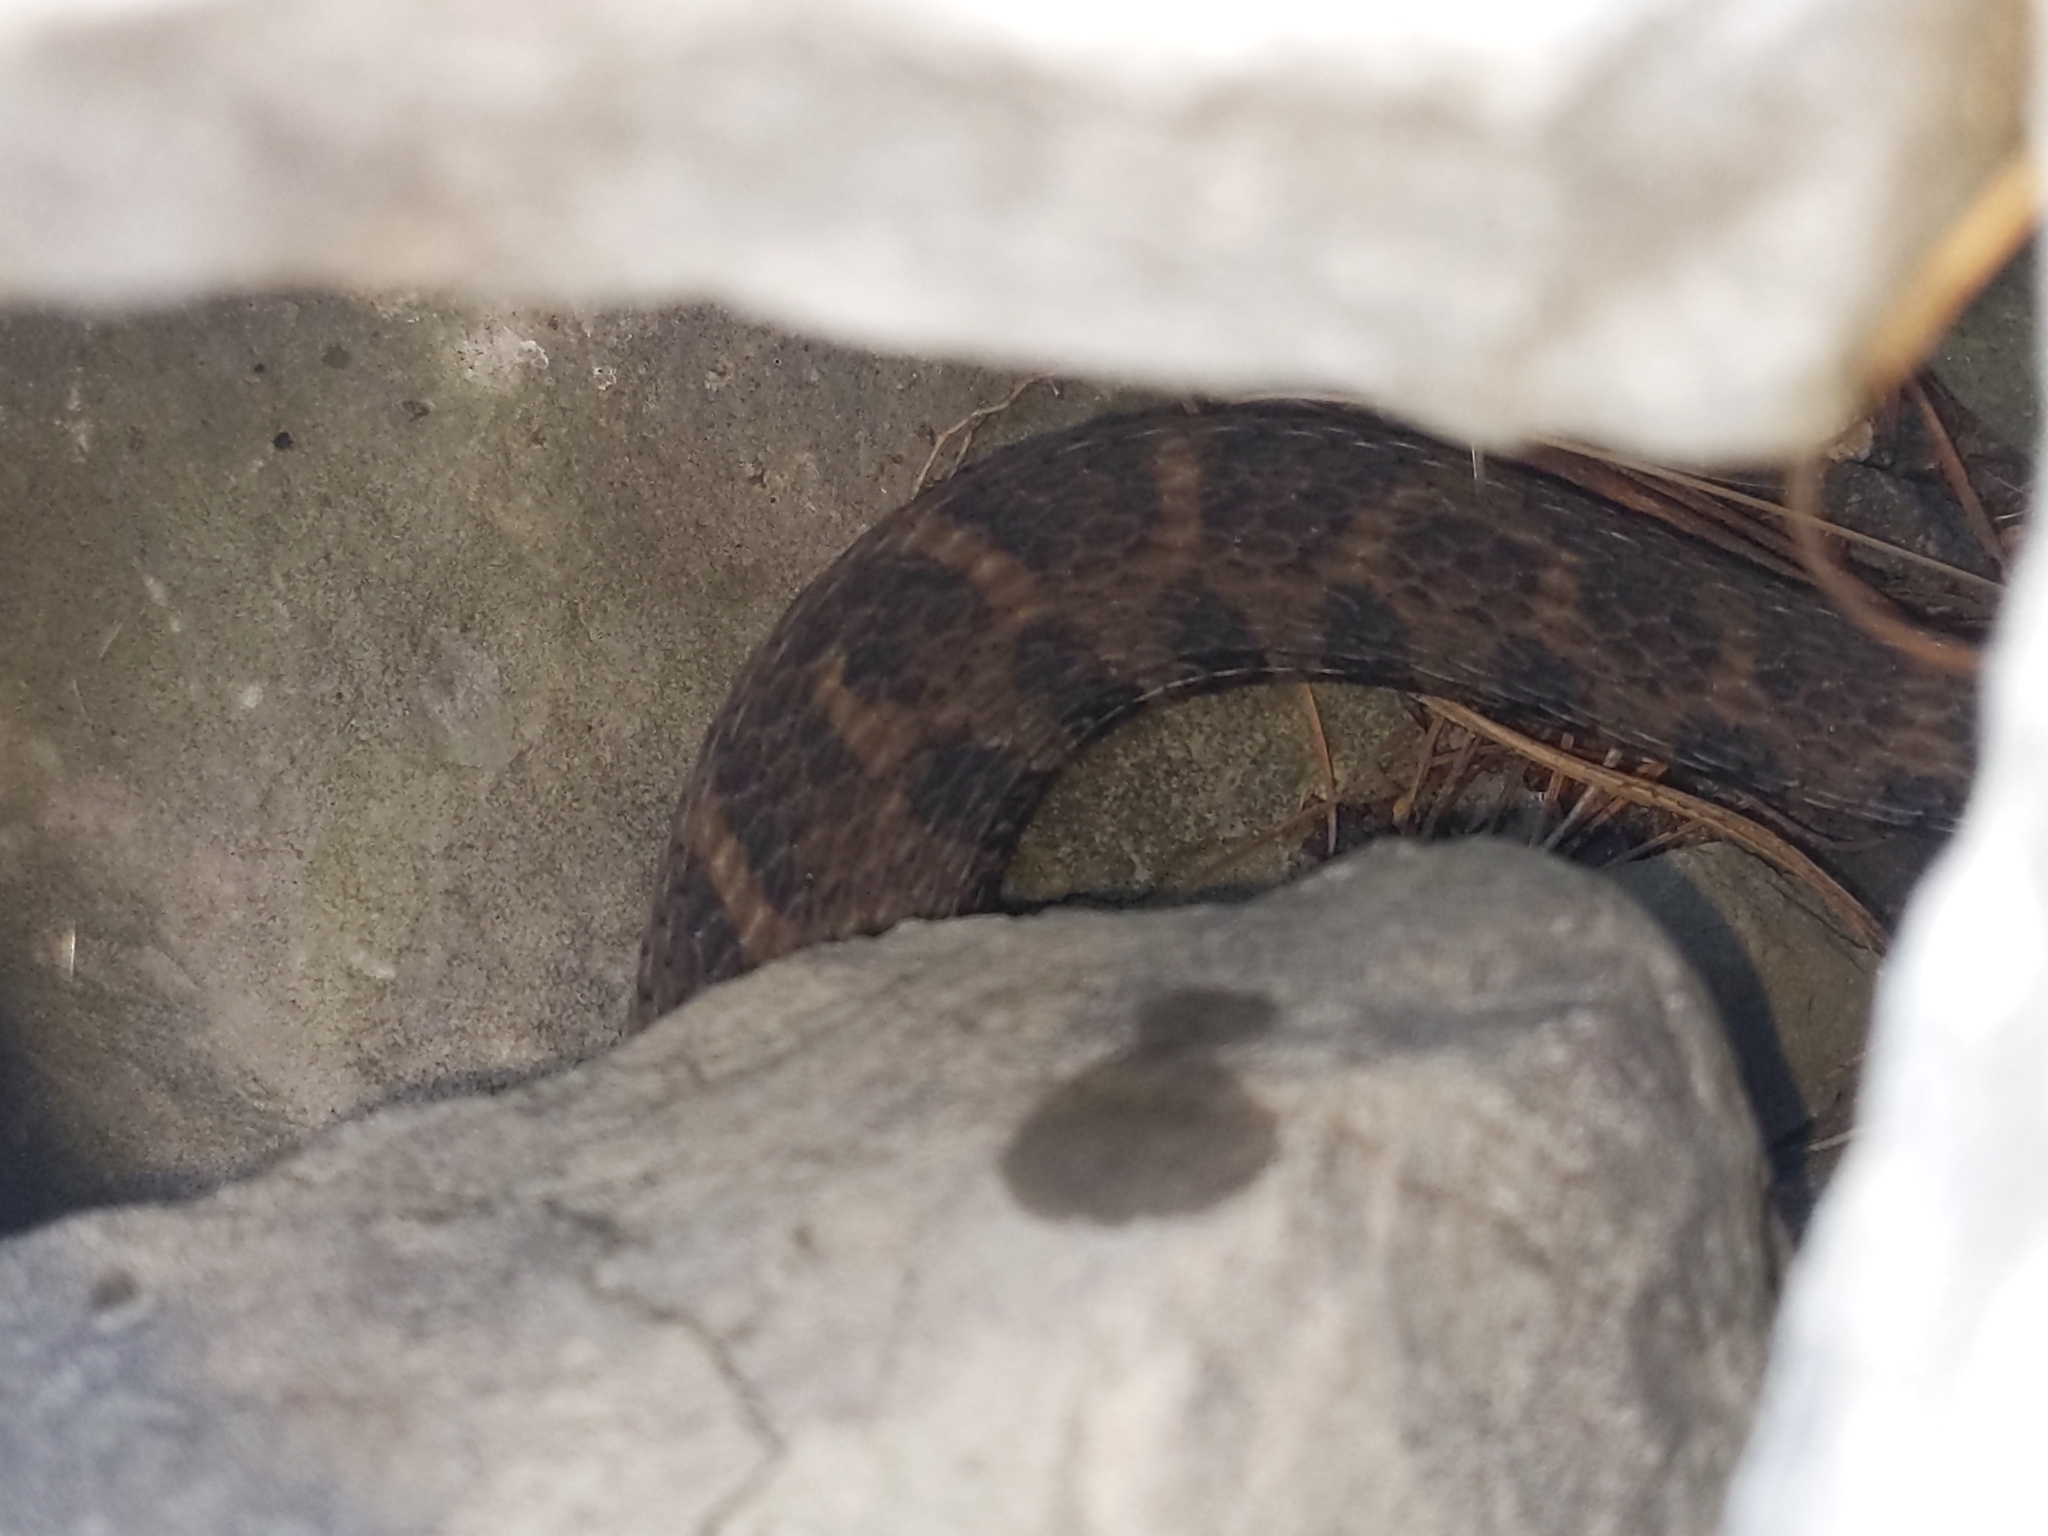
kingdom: Animalia
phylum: Chordata
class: Squamata
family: Colubridae
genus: Nerodia
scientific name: Nerodia sipedon
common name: Northern water snake
